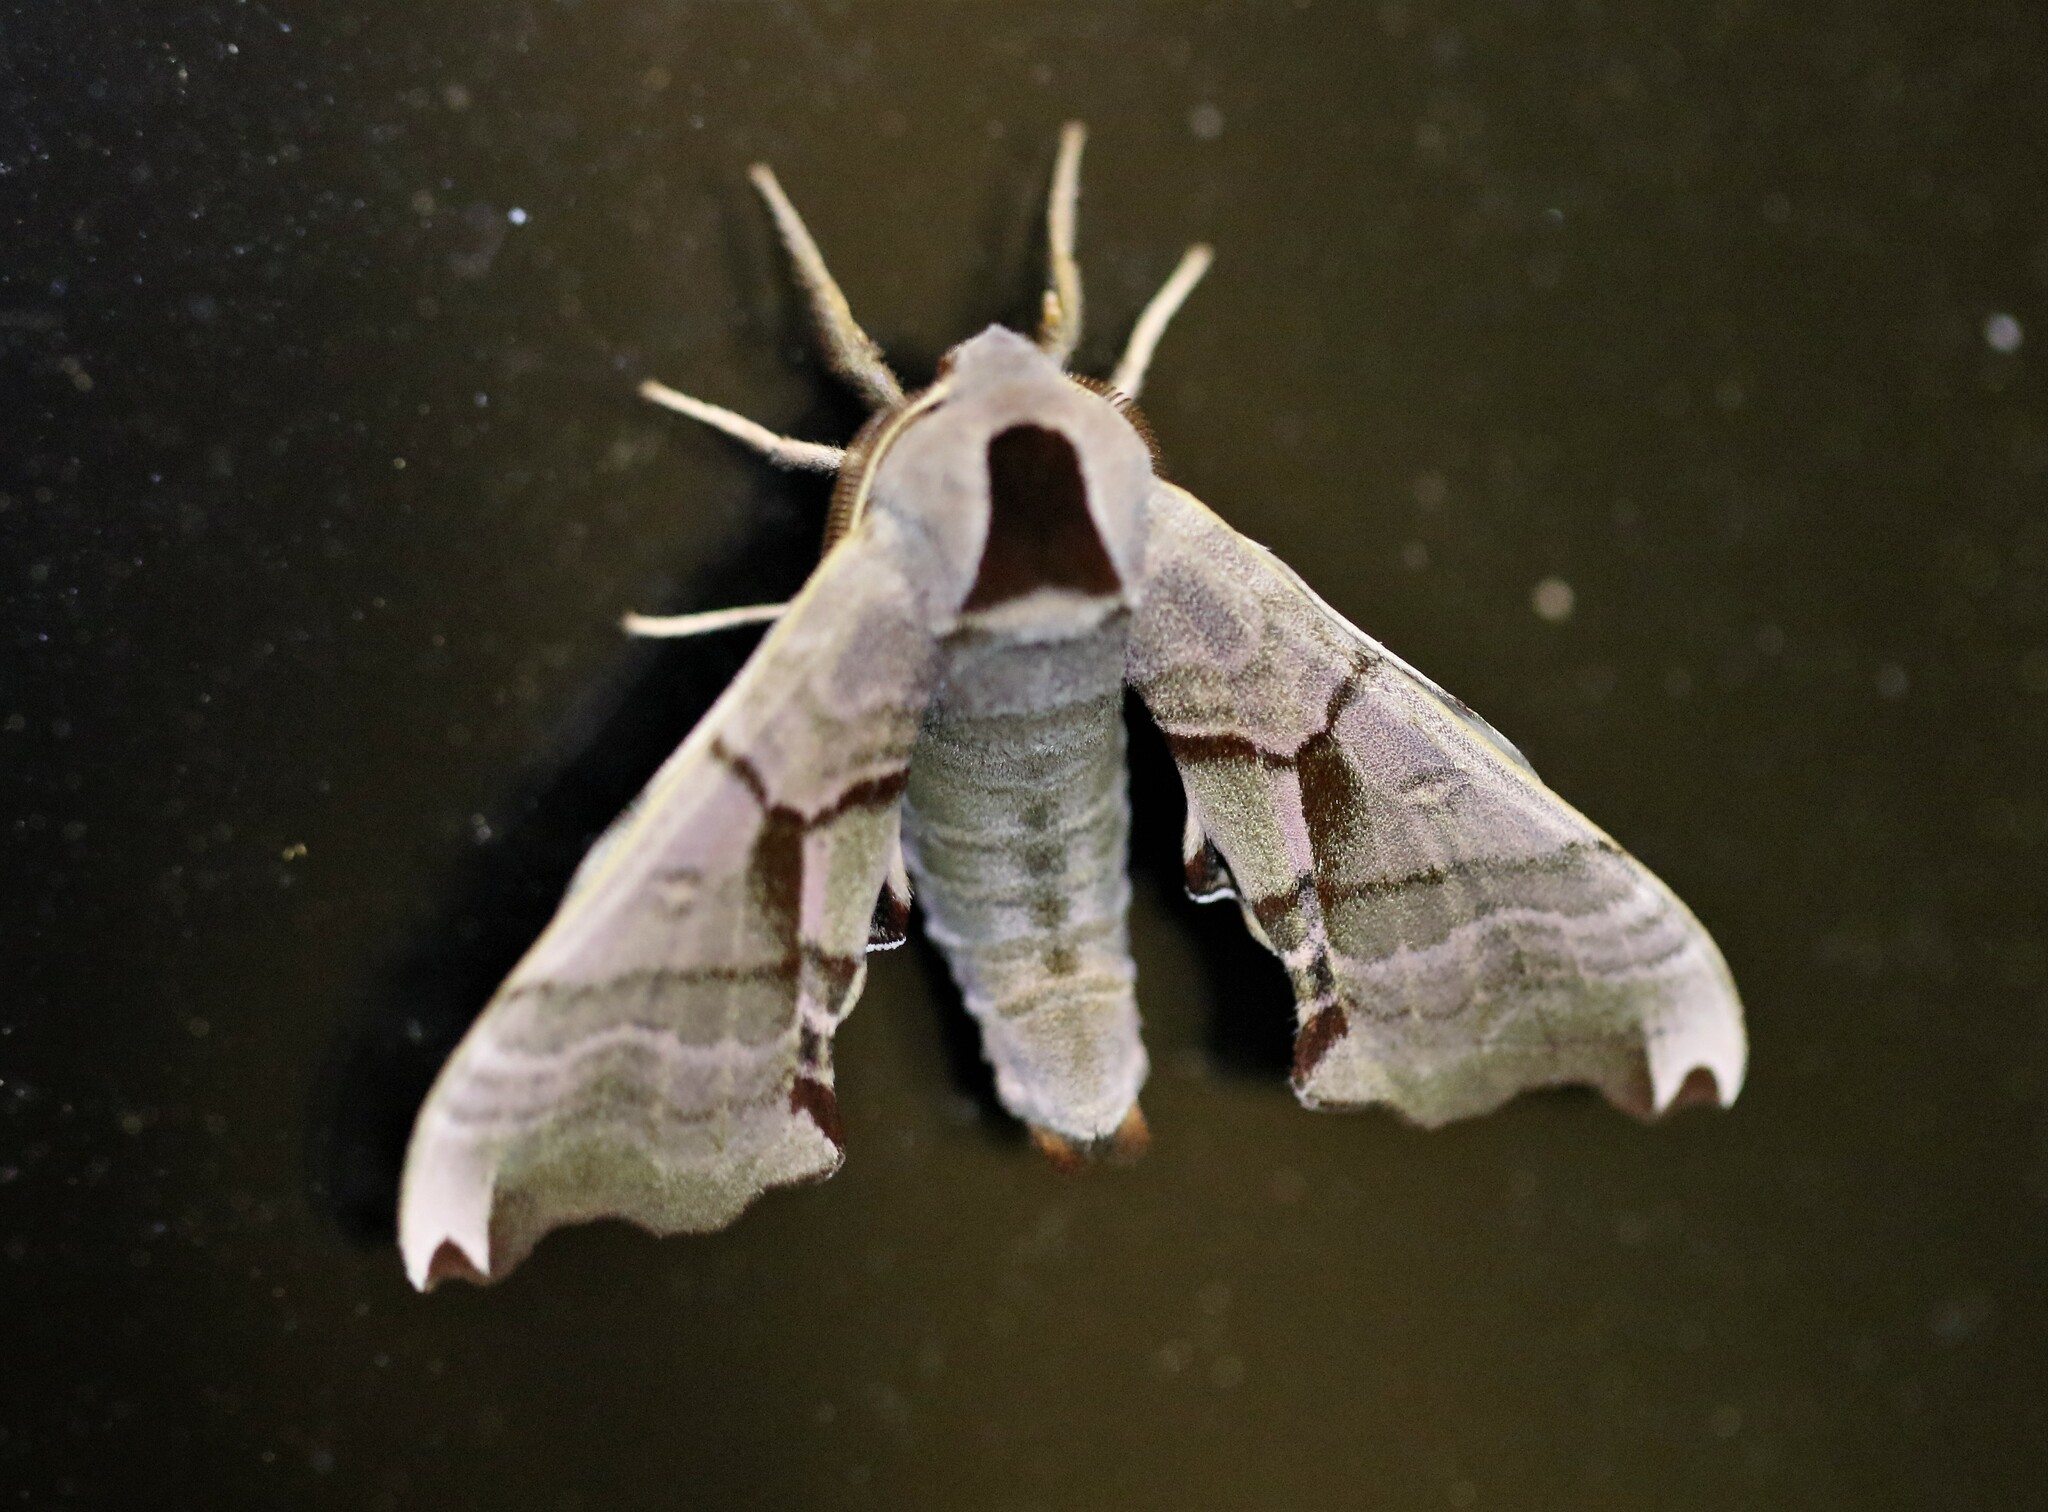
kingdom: Animalia
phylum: Arthropoda
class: Insecta
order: Lepidoptera
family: Sphingidae
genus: Smerinthus
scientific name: Smerinthus jamaicensis
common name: Twin spotted sphinx
